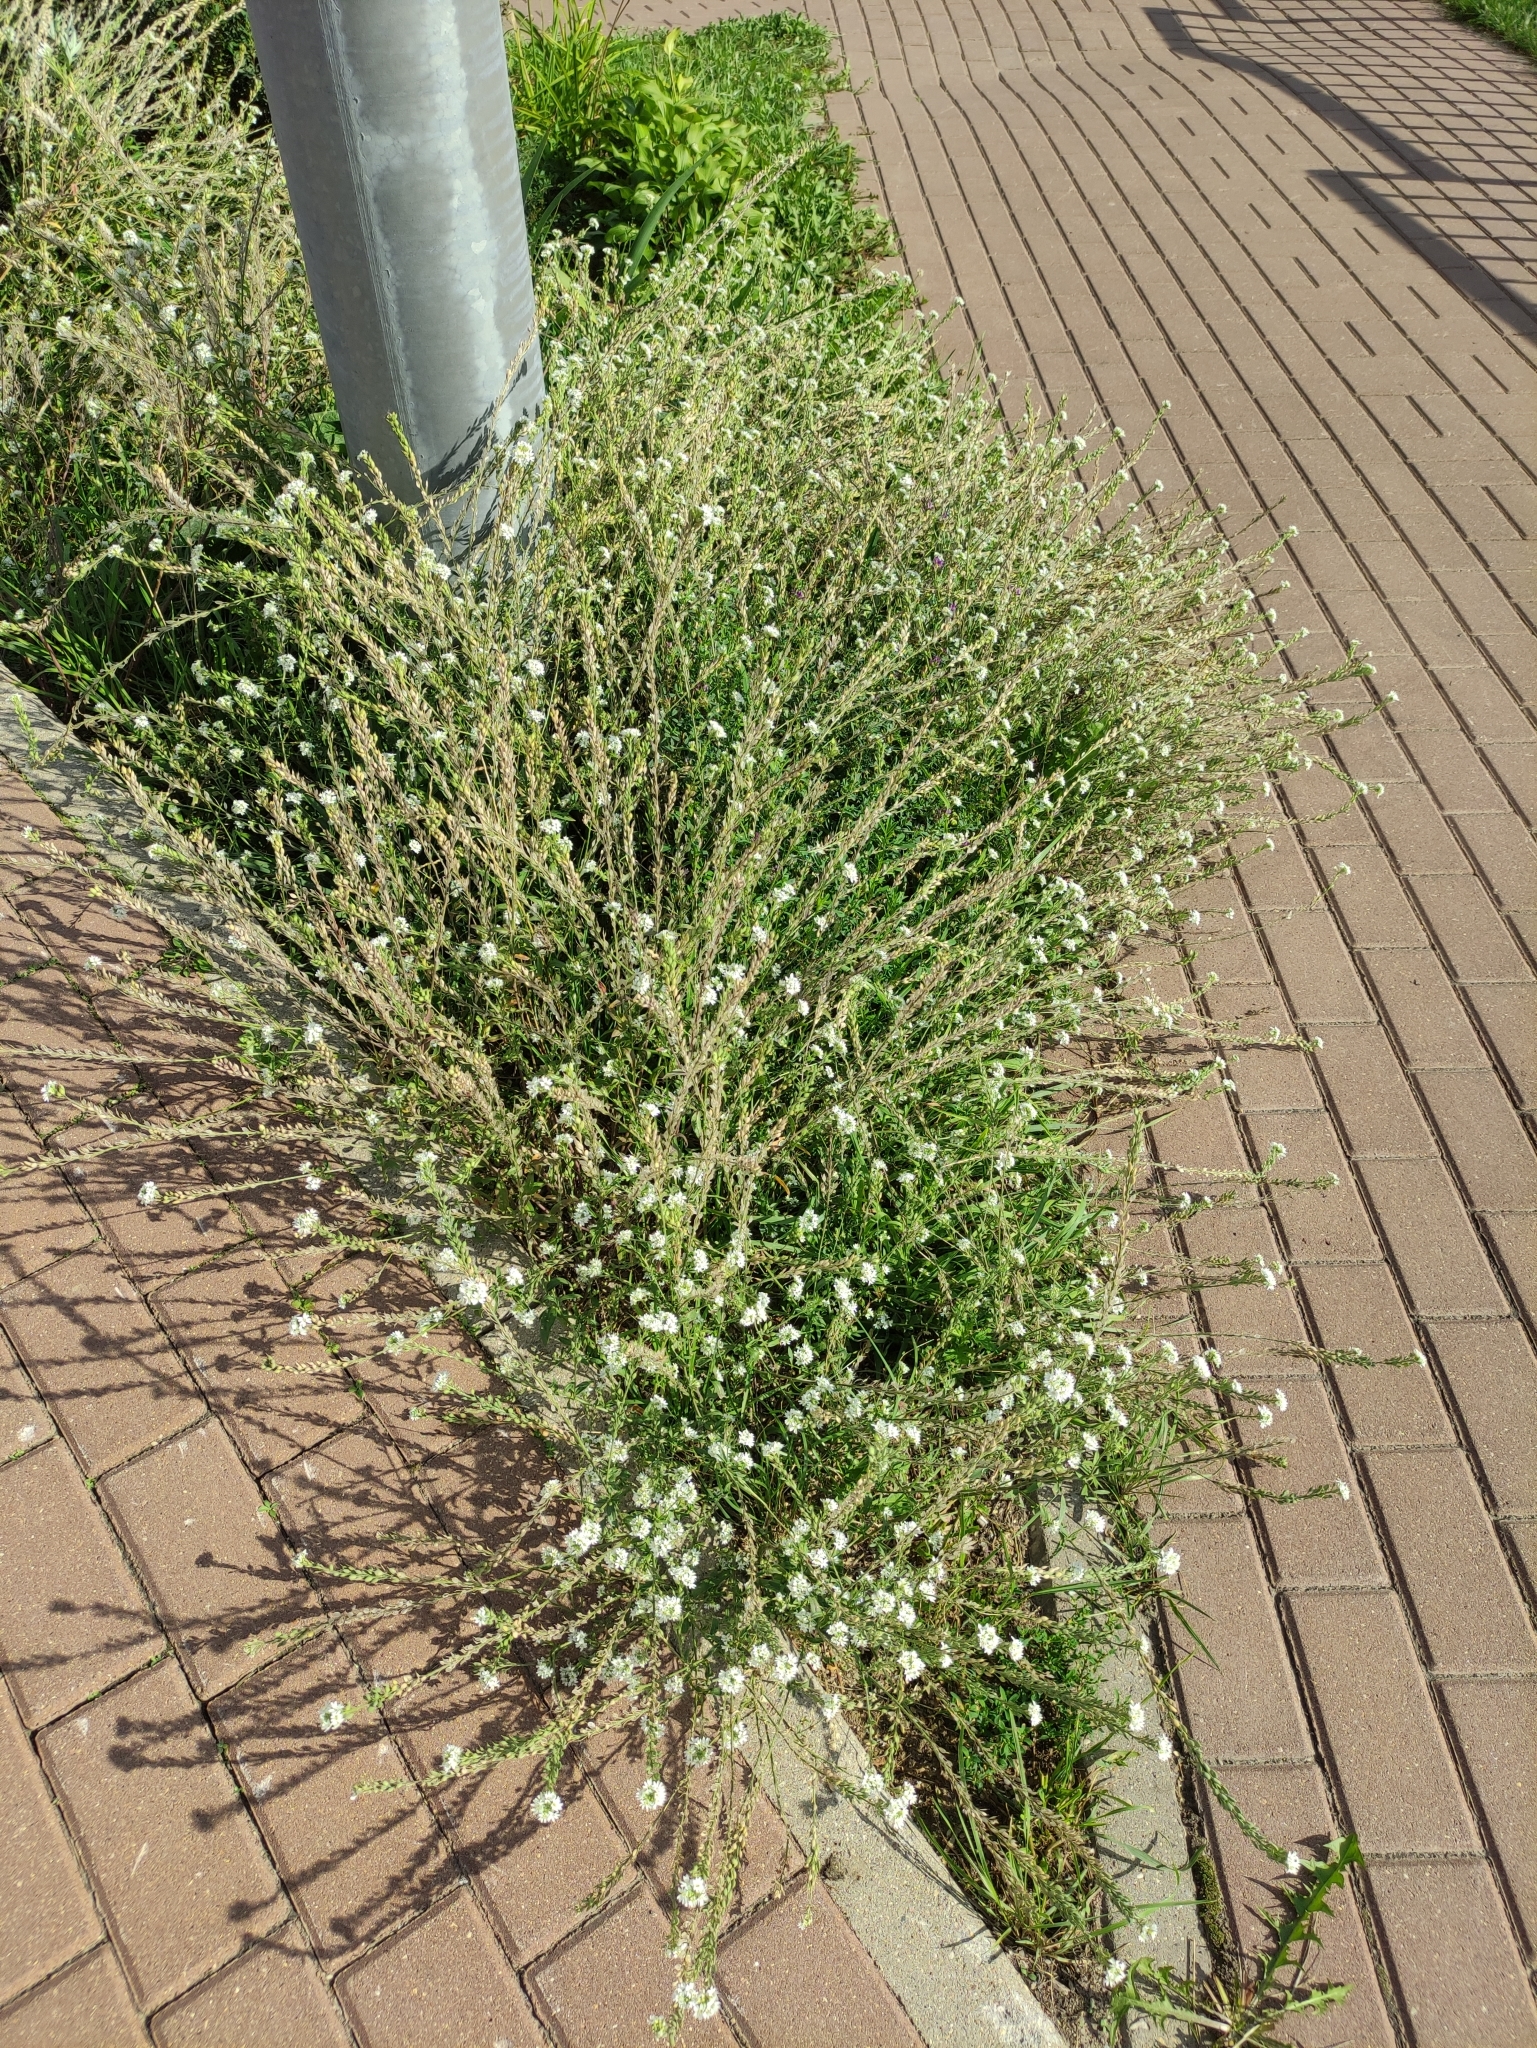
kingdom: Plantae
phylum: Tracheophyta
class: Magnoliopsida
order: Brassicales
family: Brassicaceae
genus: Berteroa
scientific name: Berteroa incana
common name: Hoary alison
